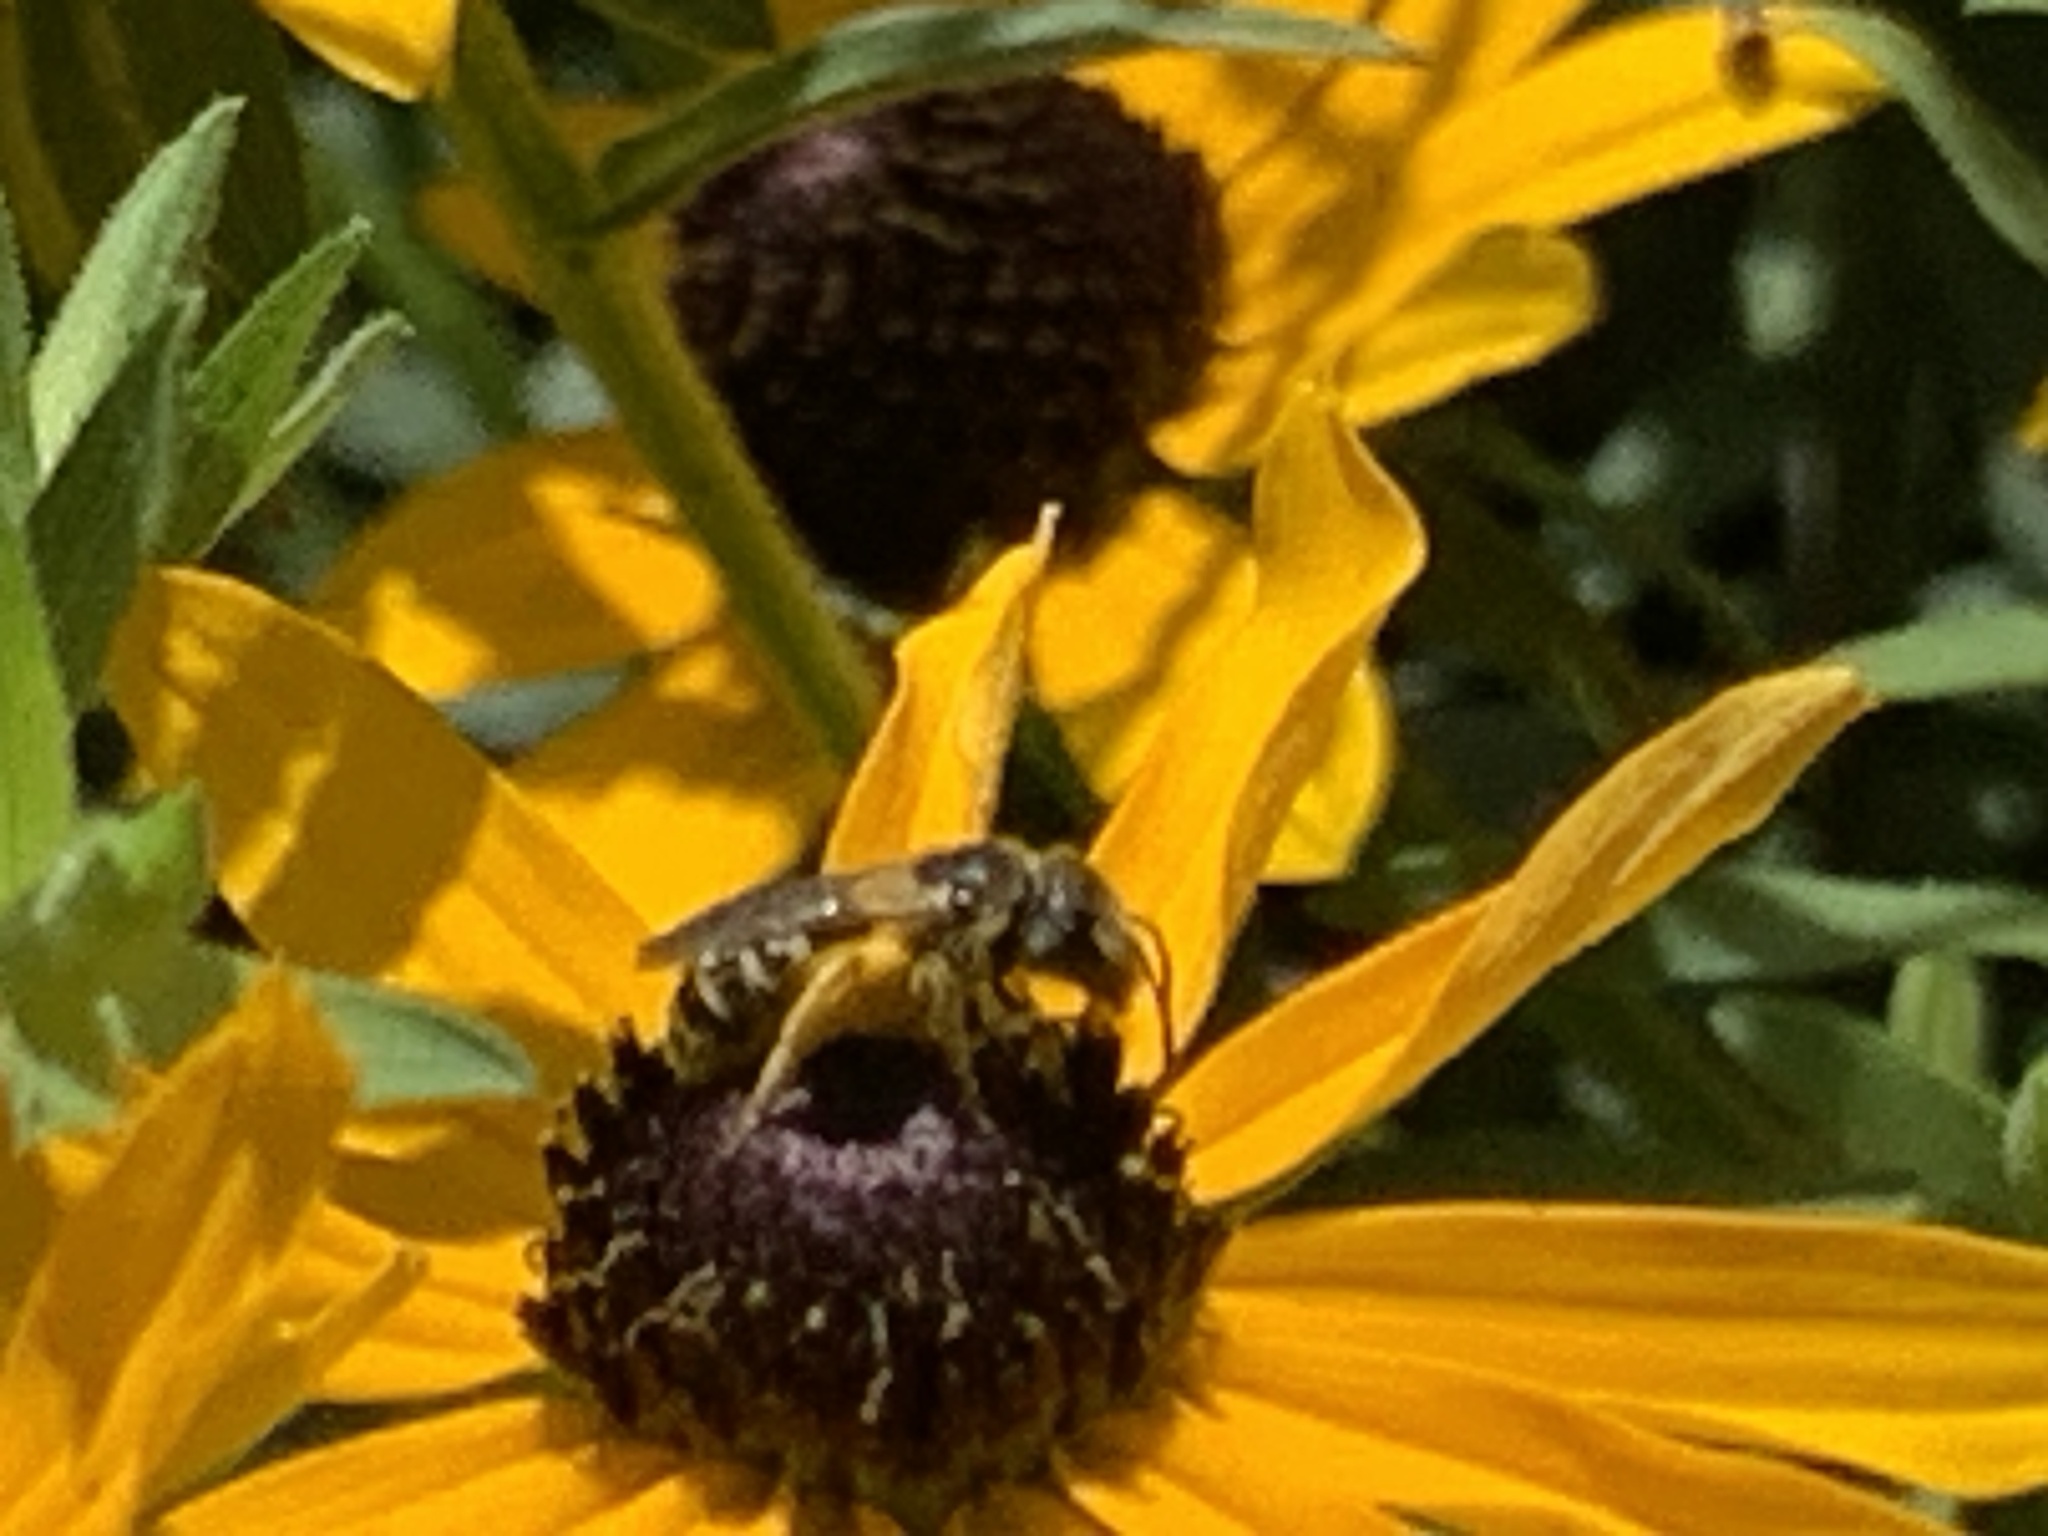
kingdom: Animalia
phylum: Arthropoda
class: Insecta
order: Hymenoptera
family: Halictidae
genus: Halictus
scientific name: Halictus ligatus
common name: Ligated furrow bee
